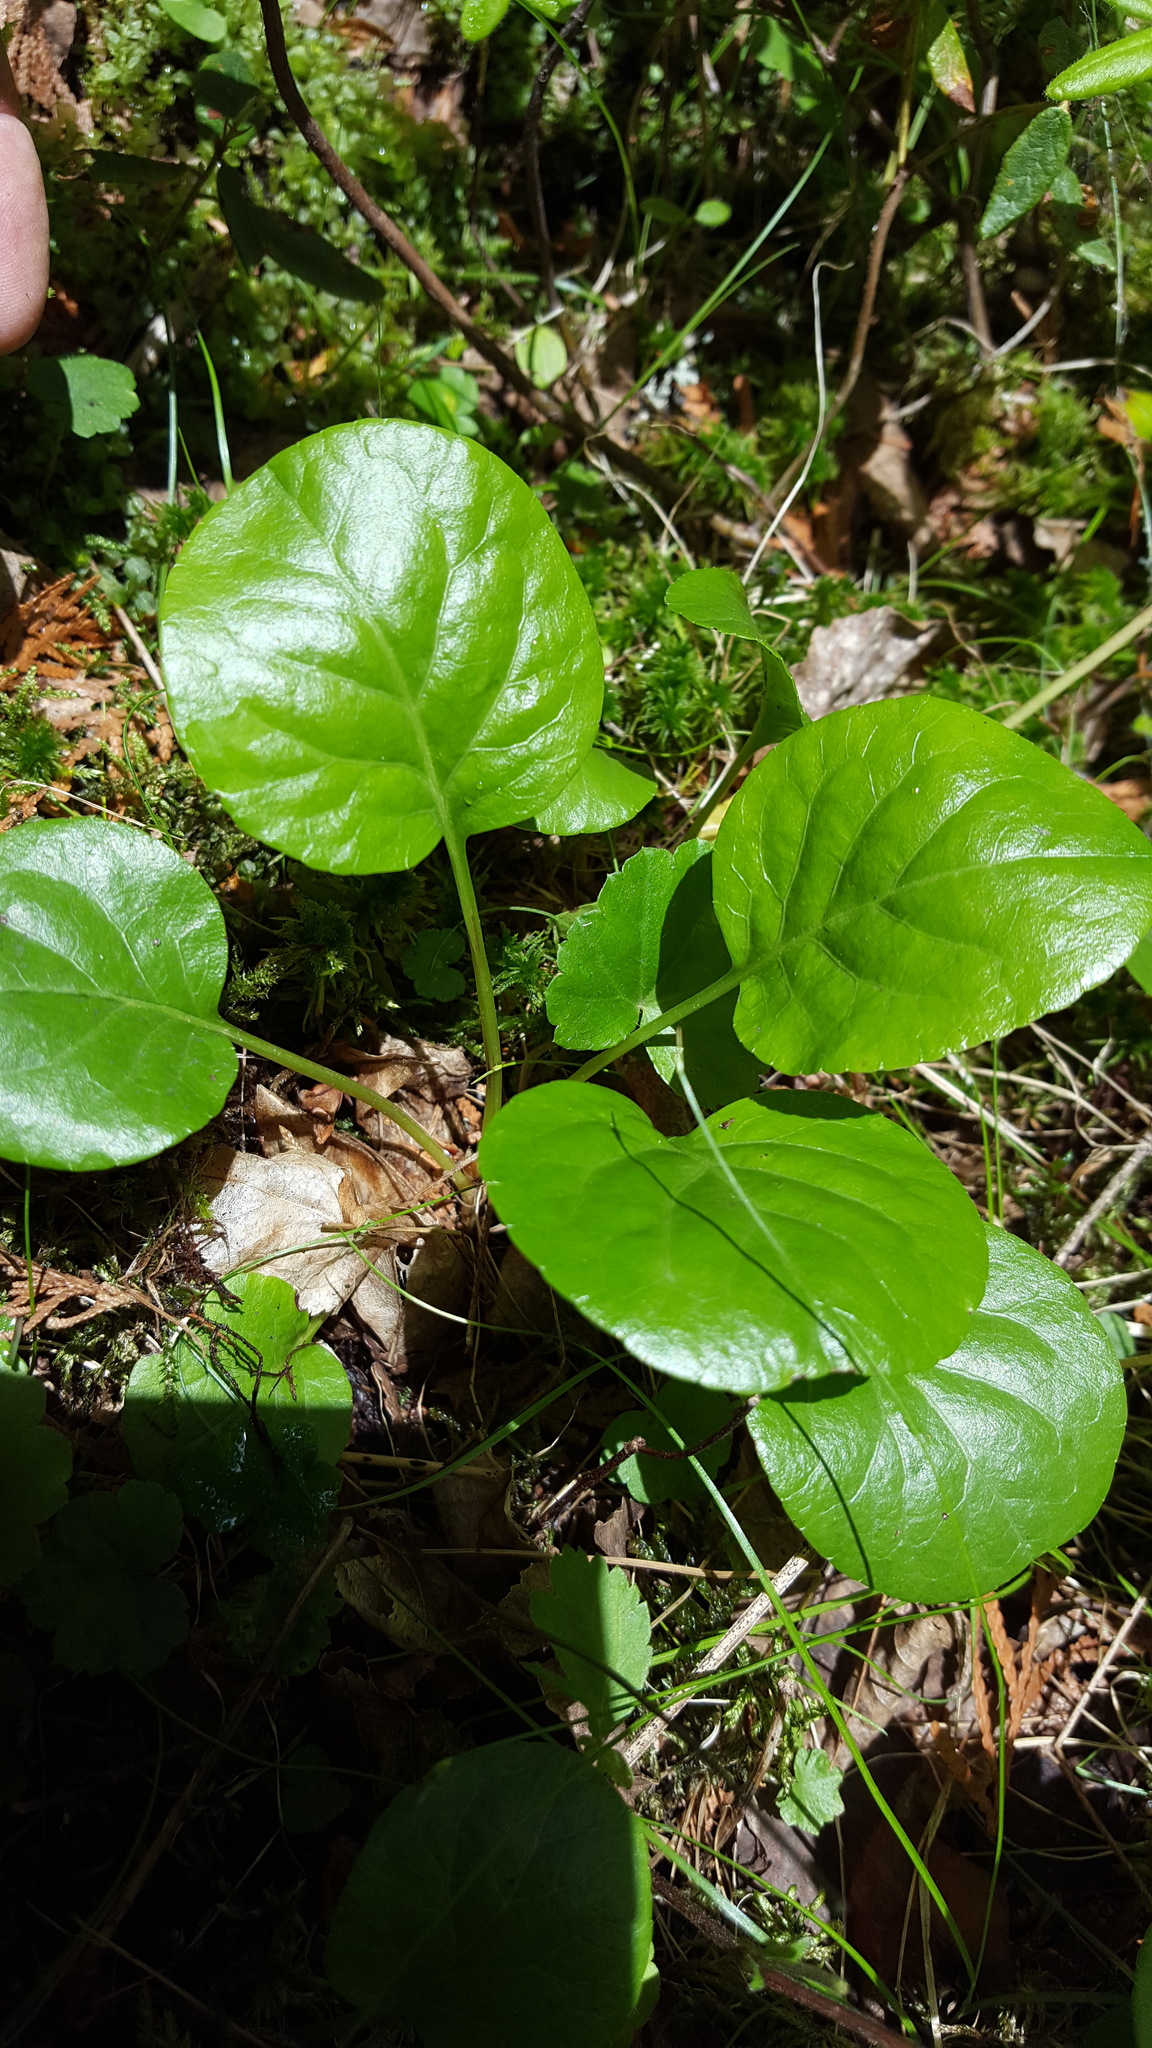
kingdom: Plantae
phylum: Tracheophyta
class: Magnoliopsida
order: Ericales
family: Ericaceae
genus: Pyrola
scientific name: Pyrola asarifolia
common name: Bog wintergreen
